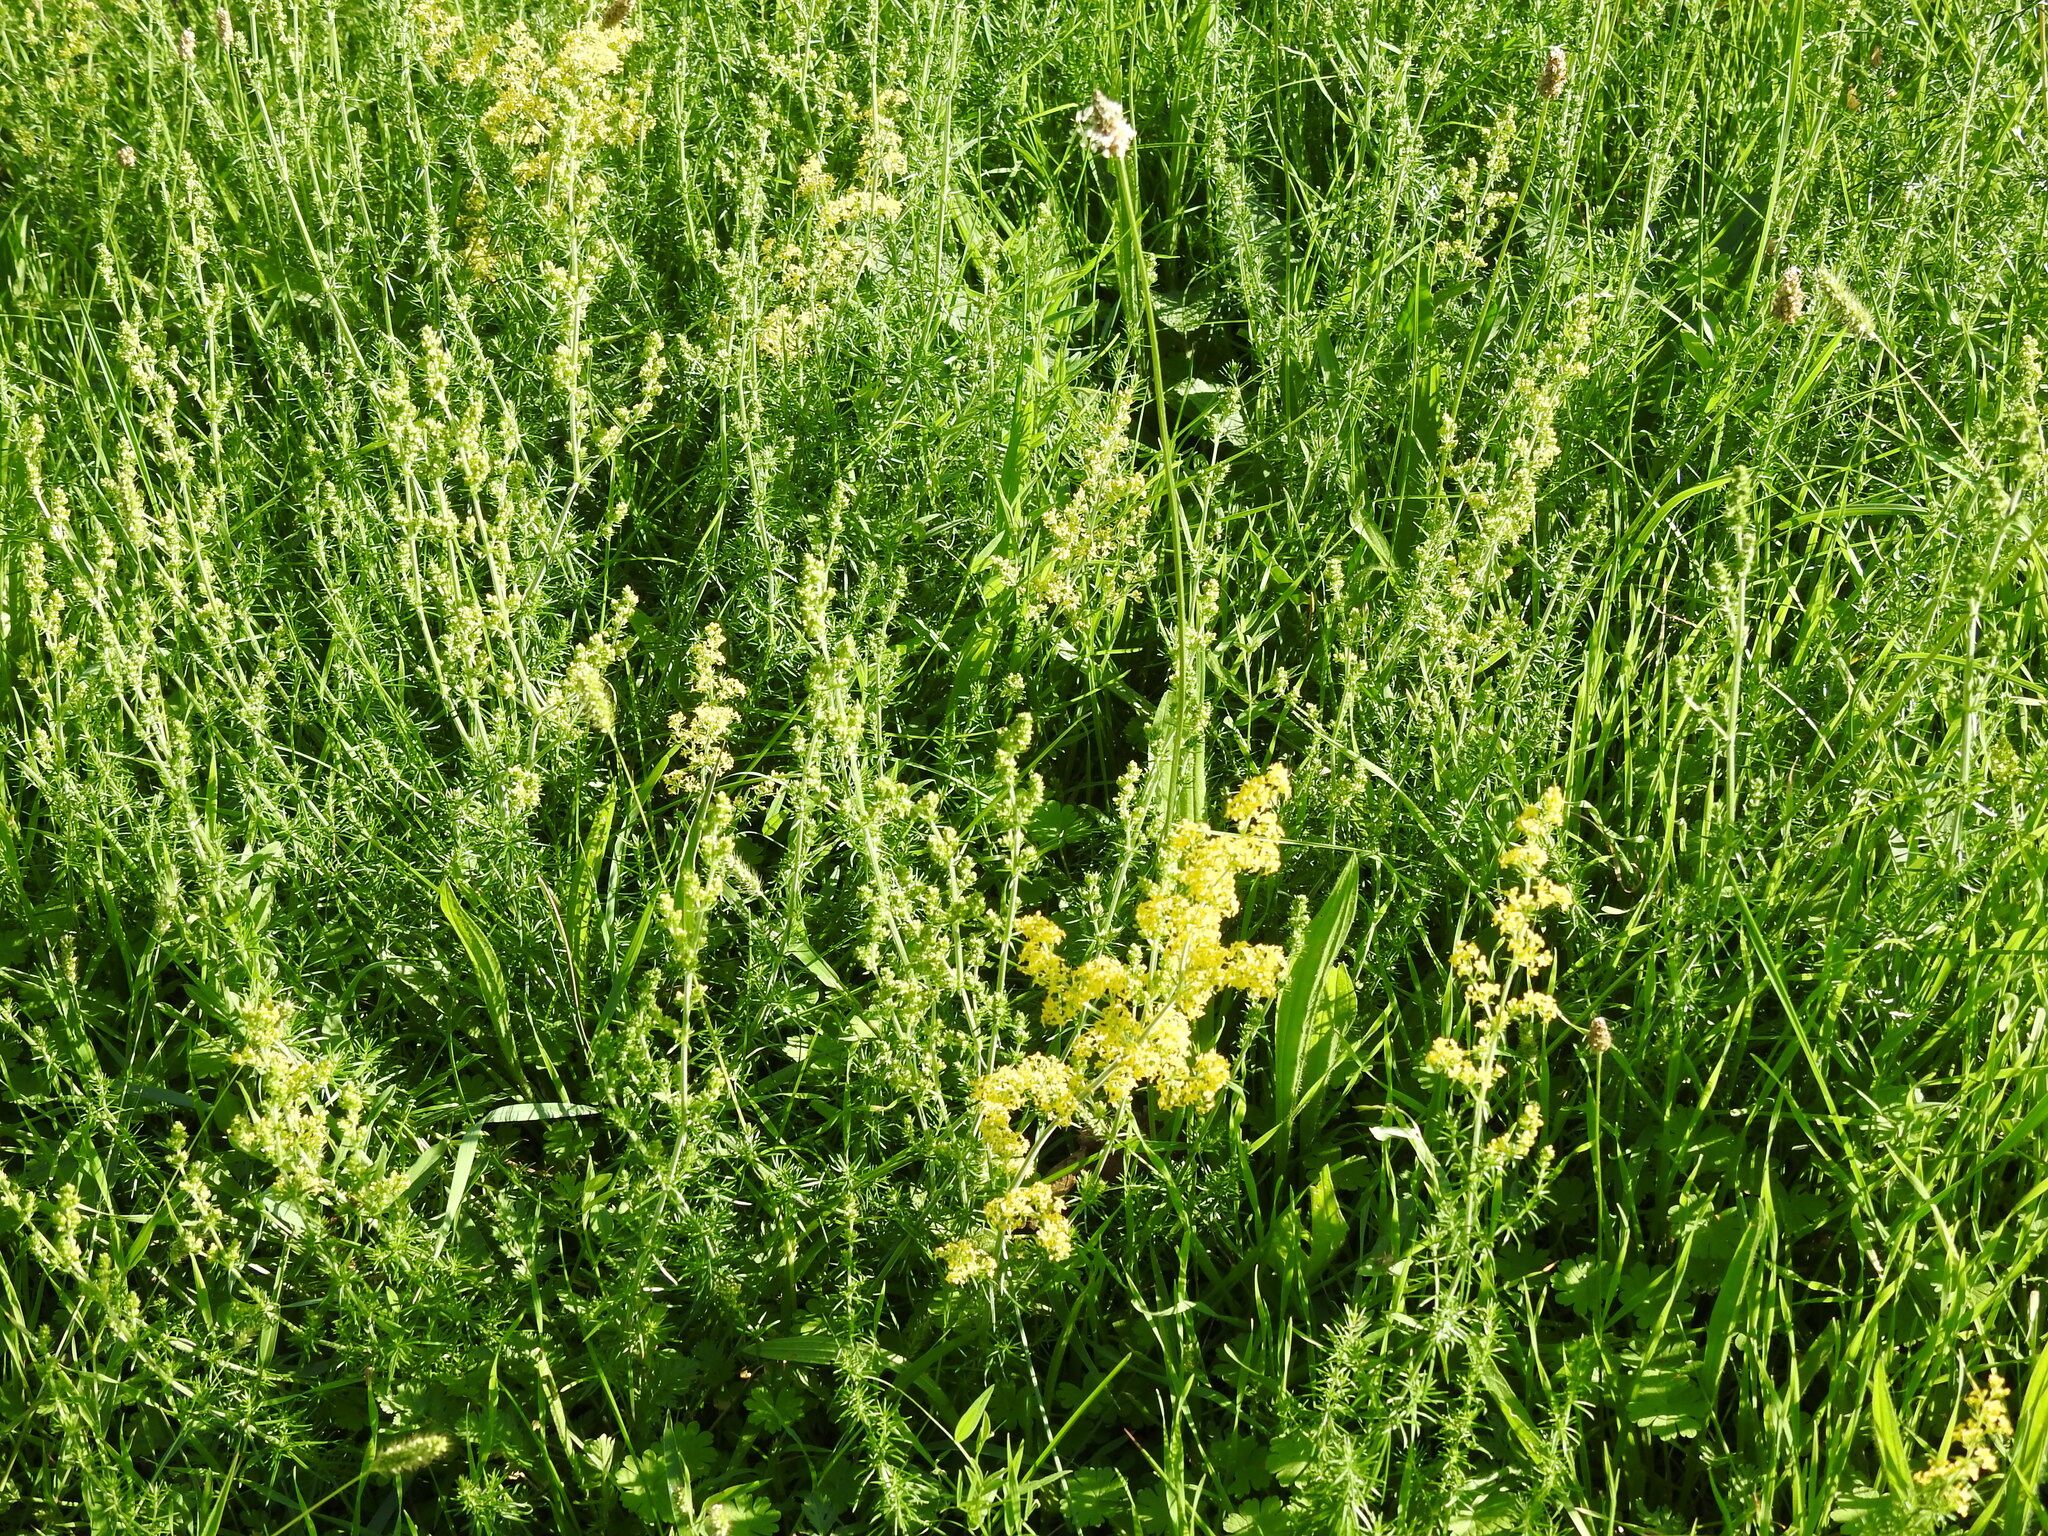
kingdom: Plantae
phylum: Tracheophyta
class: Magnoliopsida
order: Gentianales
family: Rubiaceae
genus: Galium
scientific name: Galium verum
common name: Lady's bedstraw
